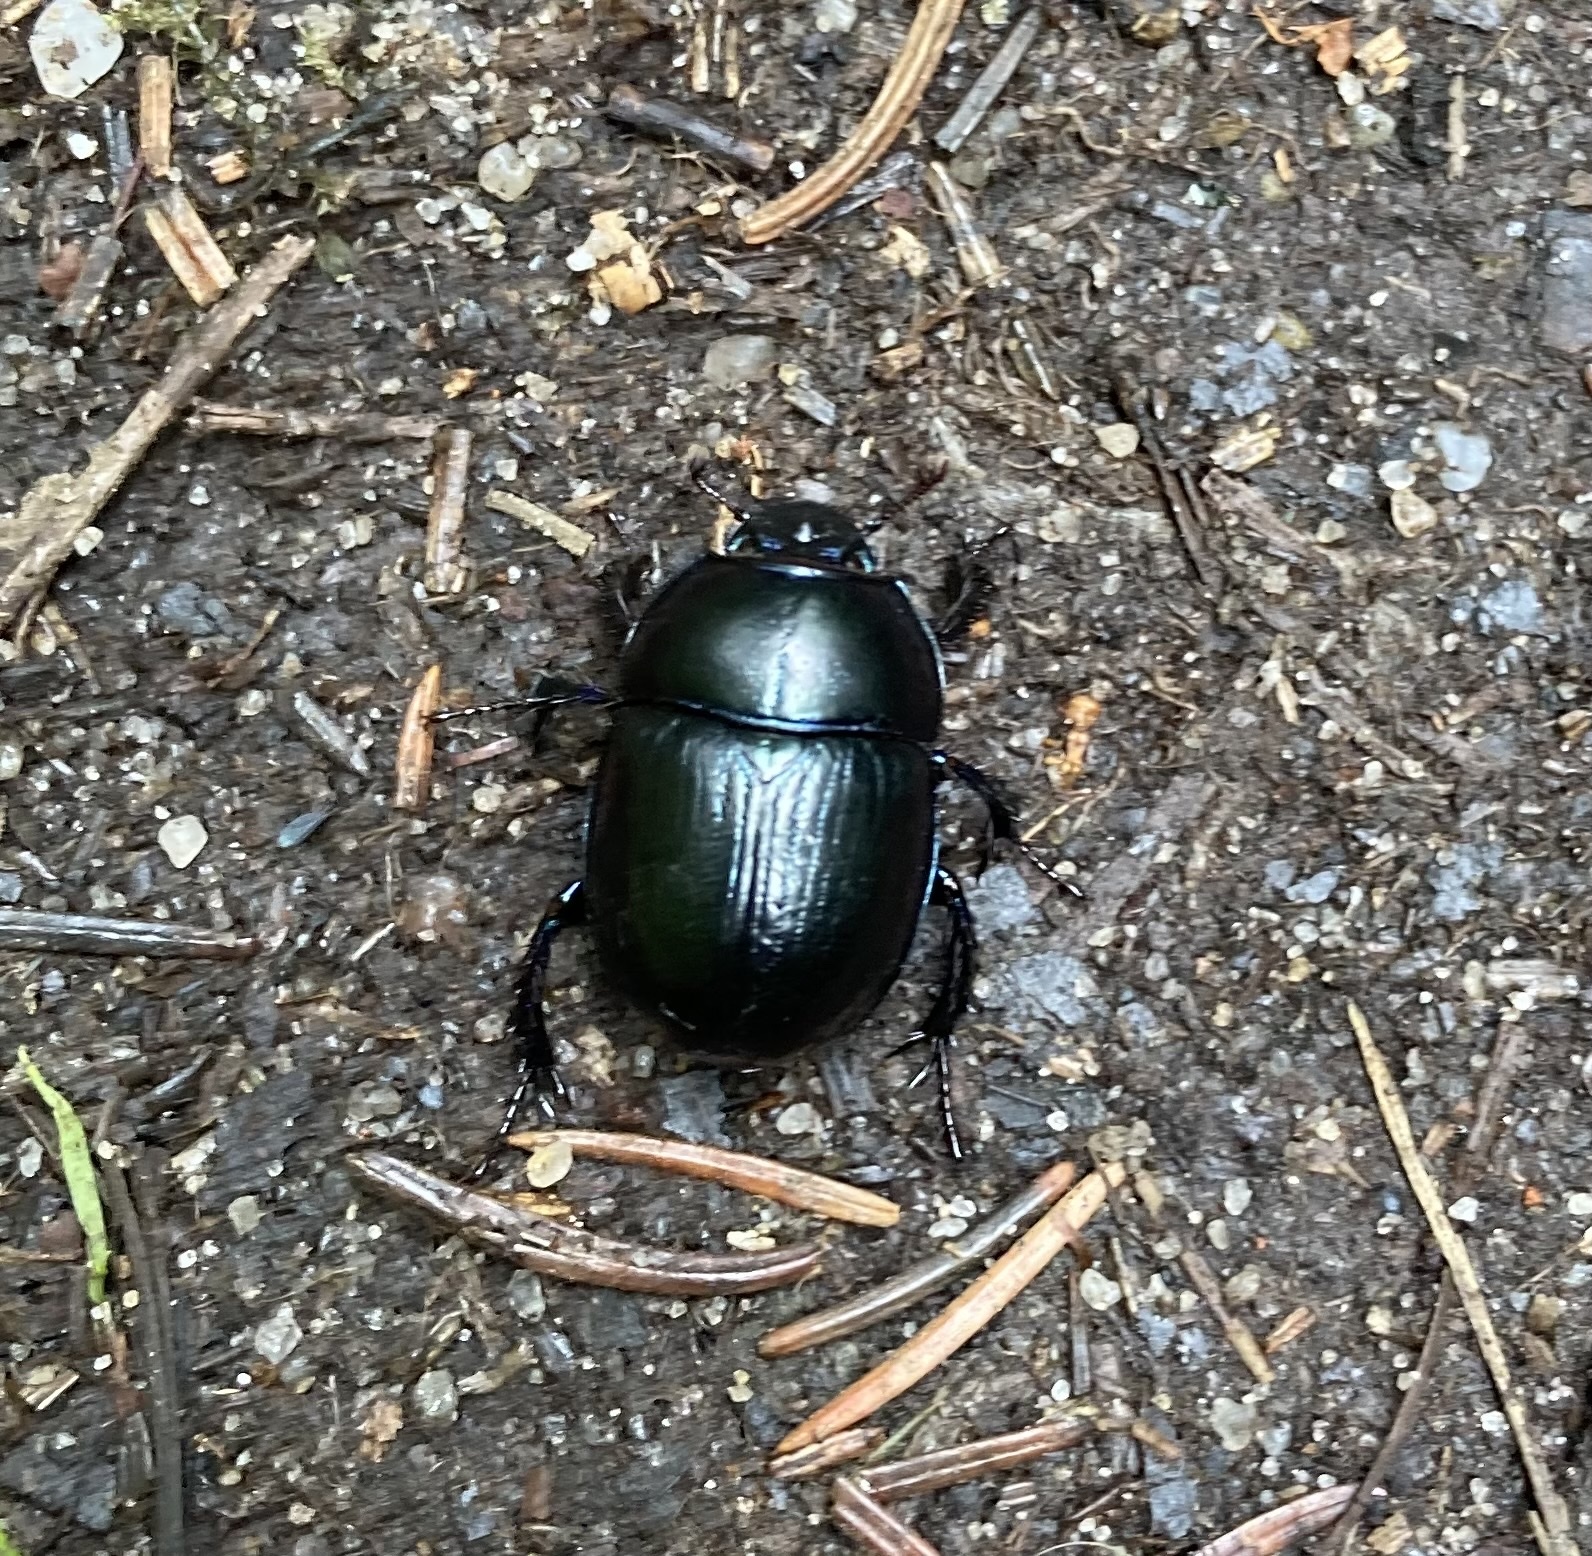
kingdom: Animalia
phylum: Arthropoda
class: Insecta
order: Coleoptera
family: Geotrupidae
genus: Anoplotrupes
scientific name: Anoplotrupes stercorosus
